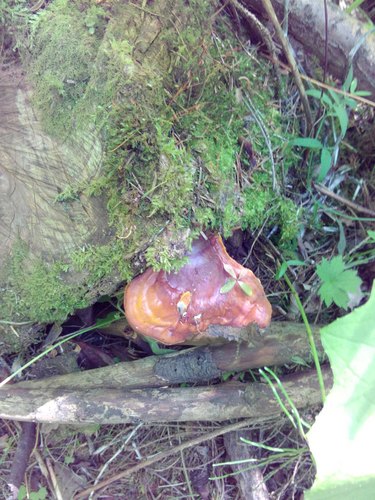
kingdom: Fungi
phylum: Basidiomycota
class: Agaricomycetes
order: Polyporales
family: Fomitopsidaceae
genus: Fomitopsis
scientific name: Fomitopsis pinicola
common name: Red-belted bracket
